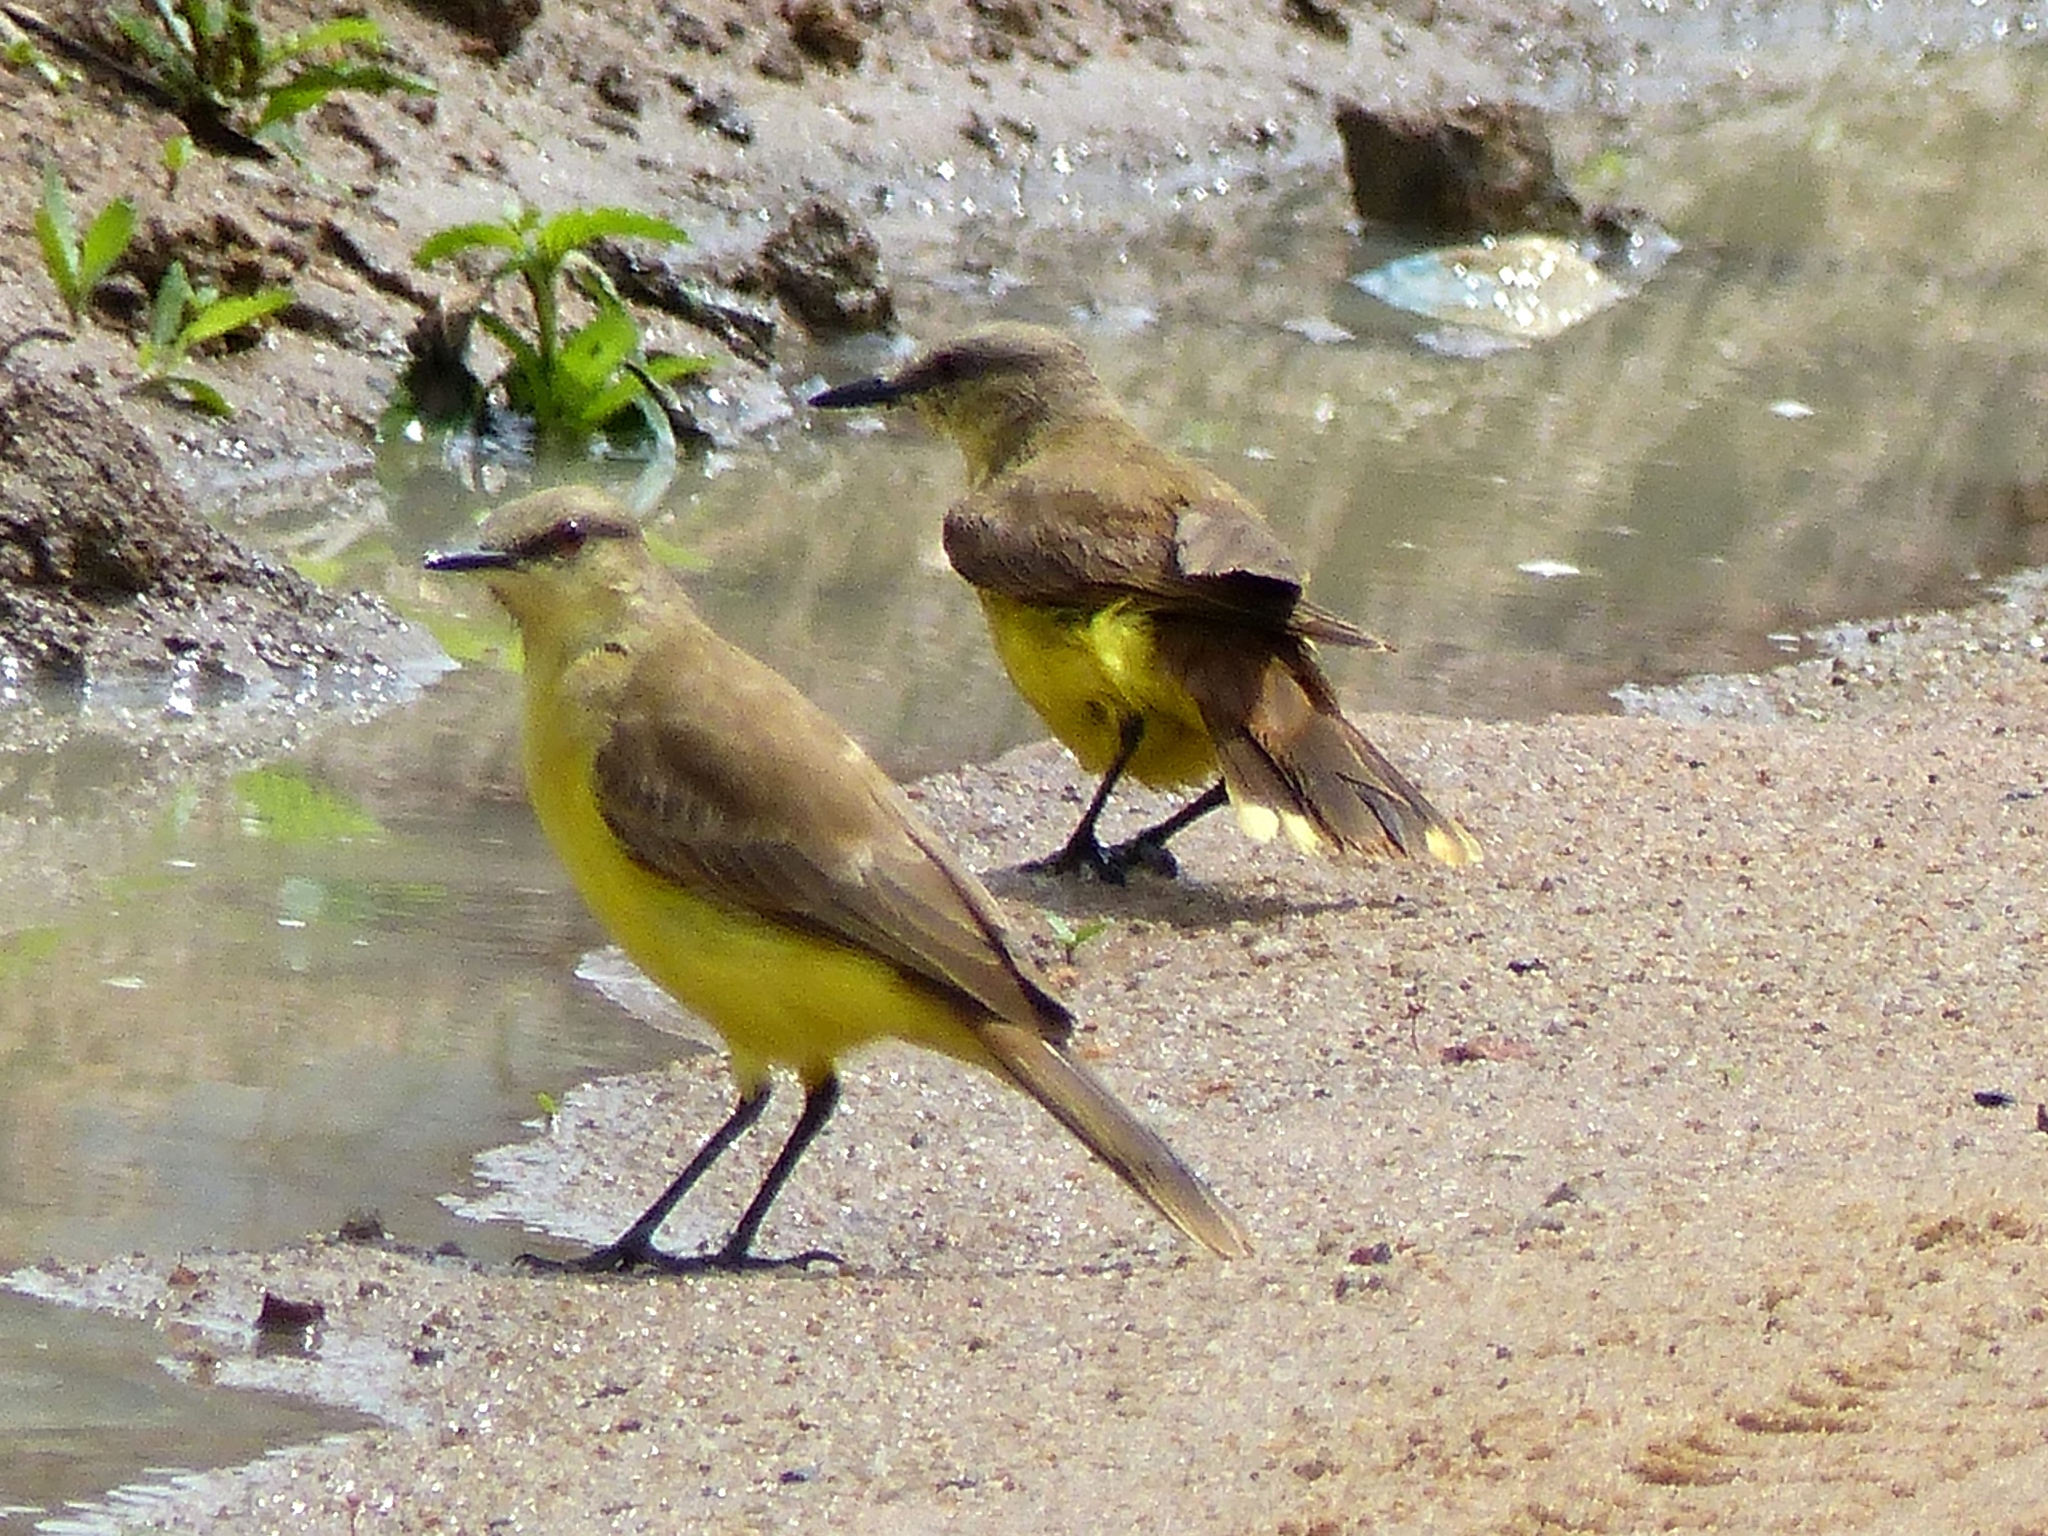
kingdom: Animalia
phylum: Chordata
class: Aves
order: Passeriformes
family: Tyrannidae
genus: Machetornis
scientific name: Machetornis rixosa
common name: Cattle tyrant
